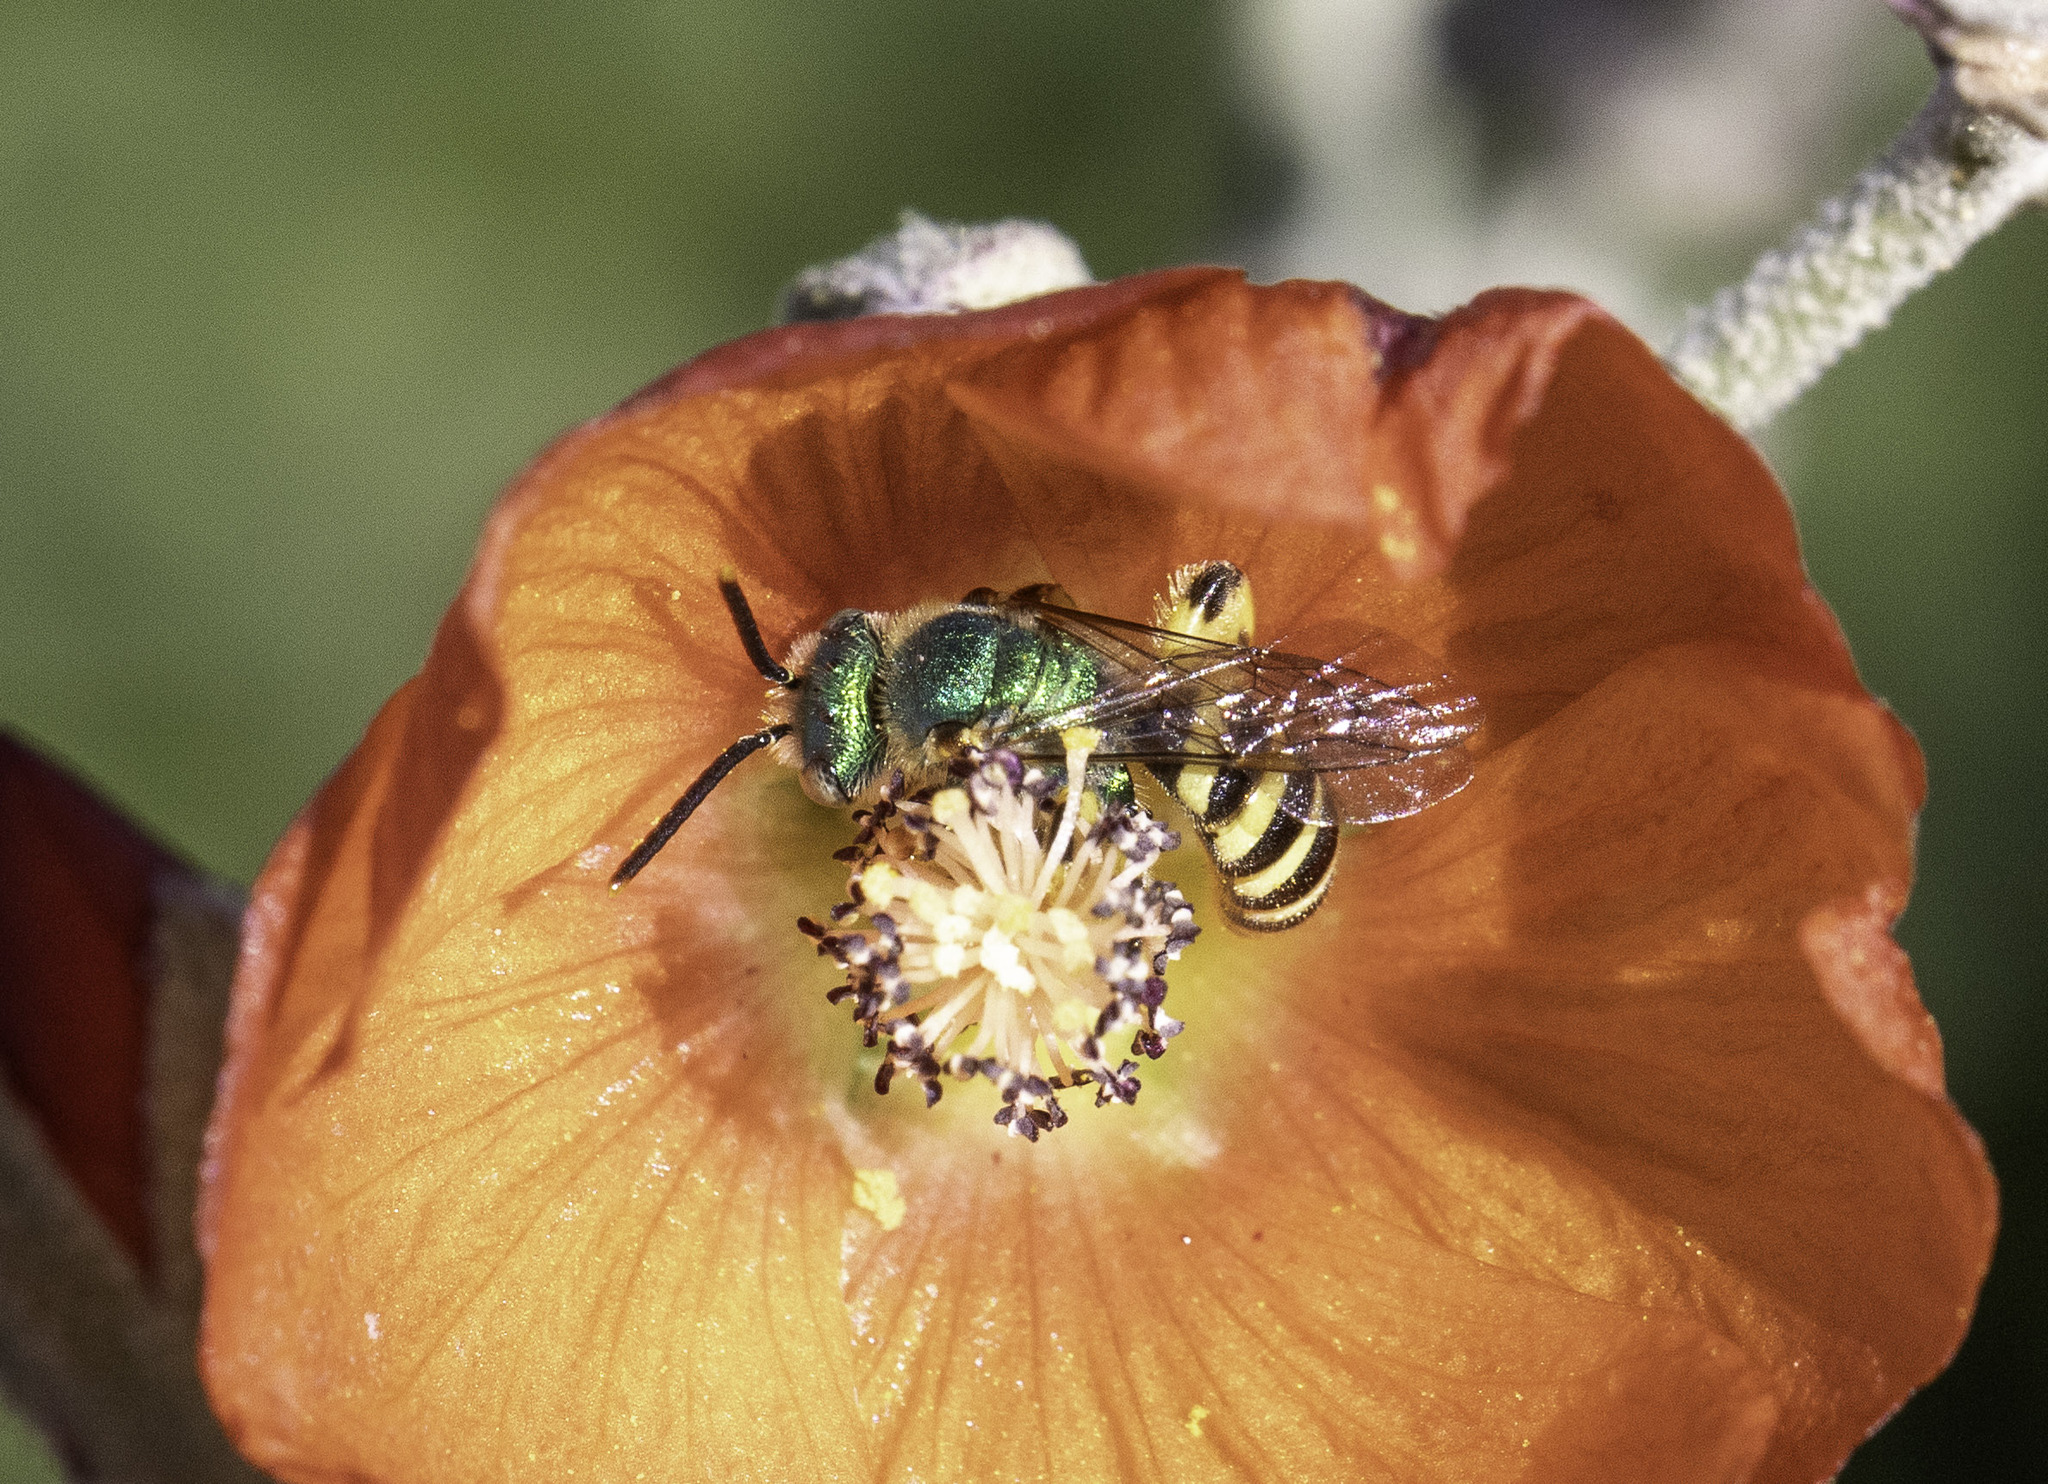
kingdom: Animalia
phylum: Arthropoda
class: Insecta
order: Hymenoptera
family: Halictidae
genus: Agapostemon
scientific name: Agapostemon texanus
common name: Texas striped sweat bee
